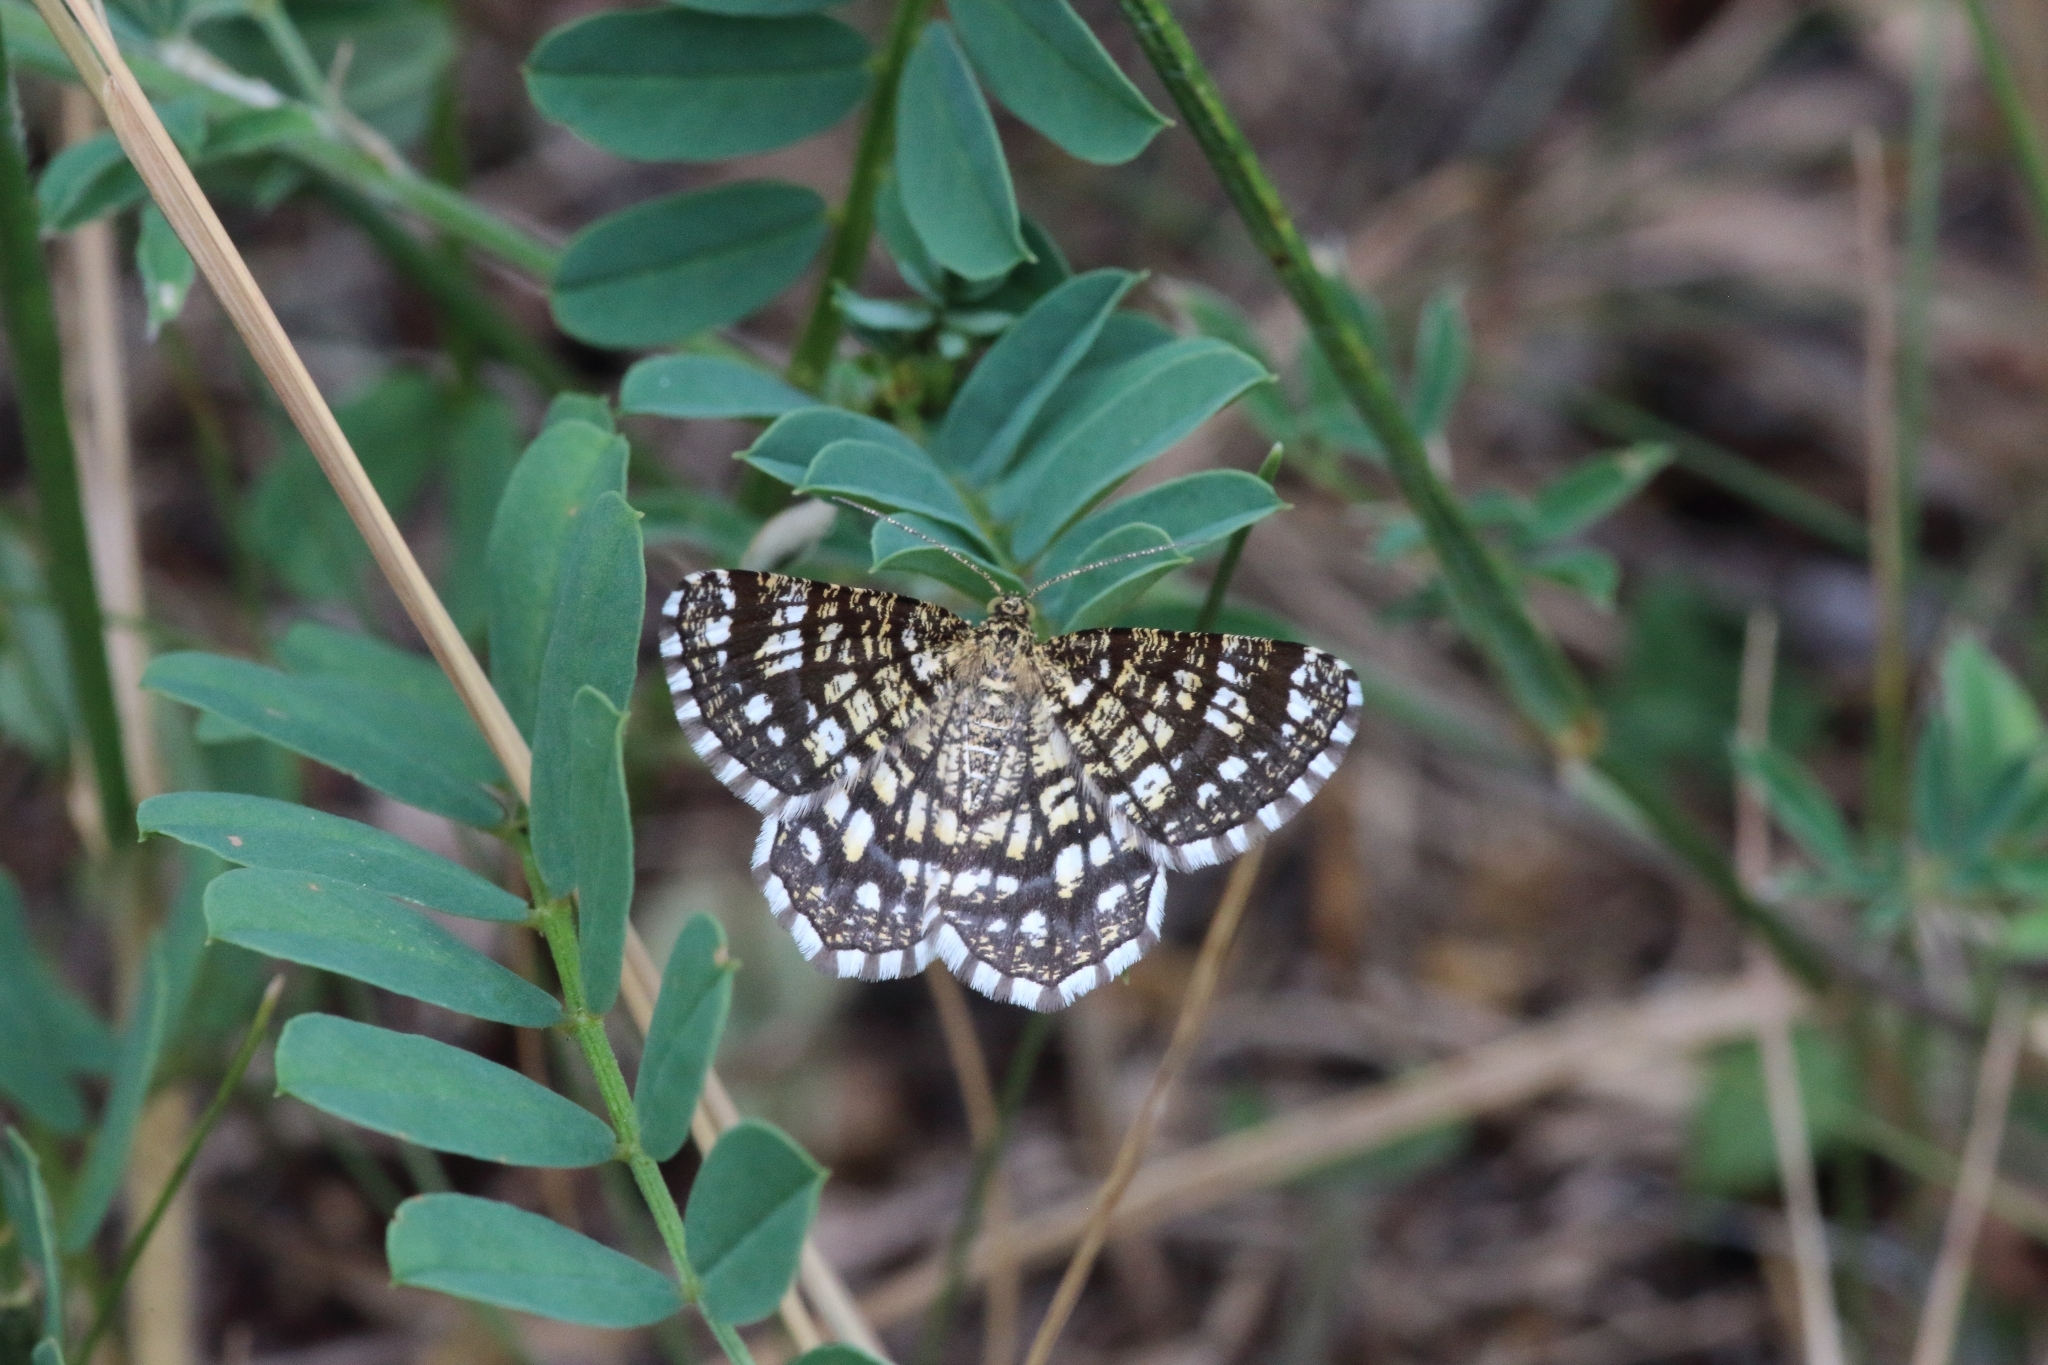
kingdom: Animalia
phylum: Arthropoda
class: Insecta
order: Lepidoptera
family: Geometridae
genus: Chiasmia
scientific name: Chiasmia clathrata
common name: Latticed heath
